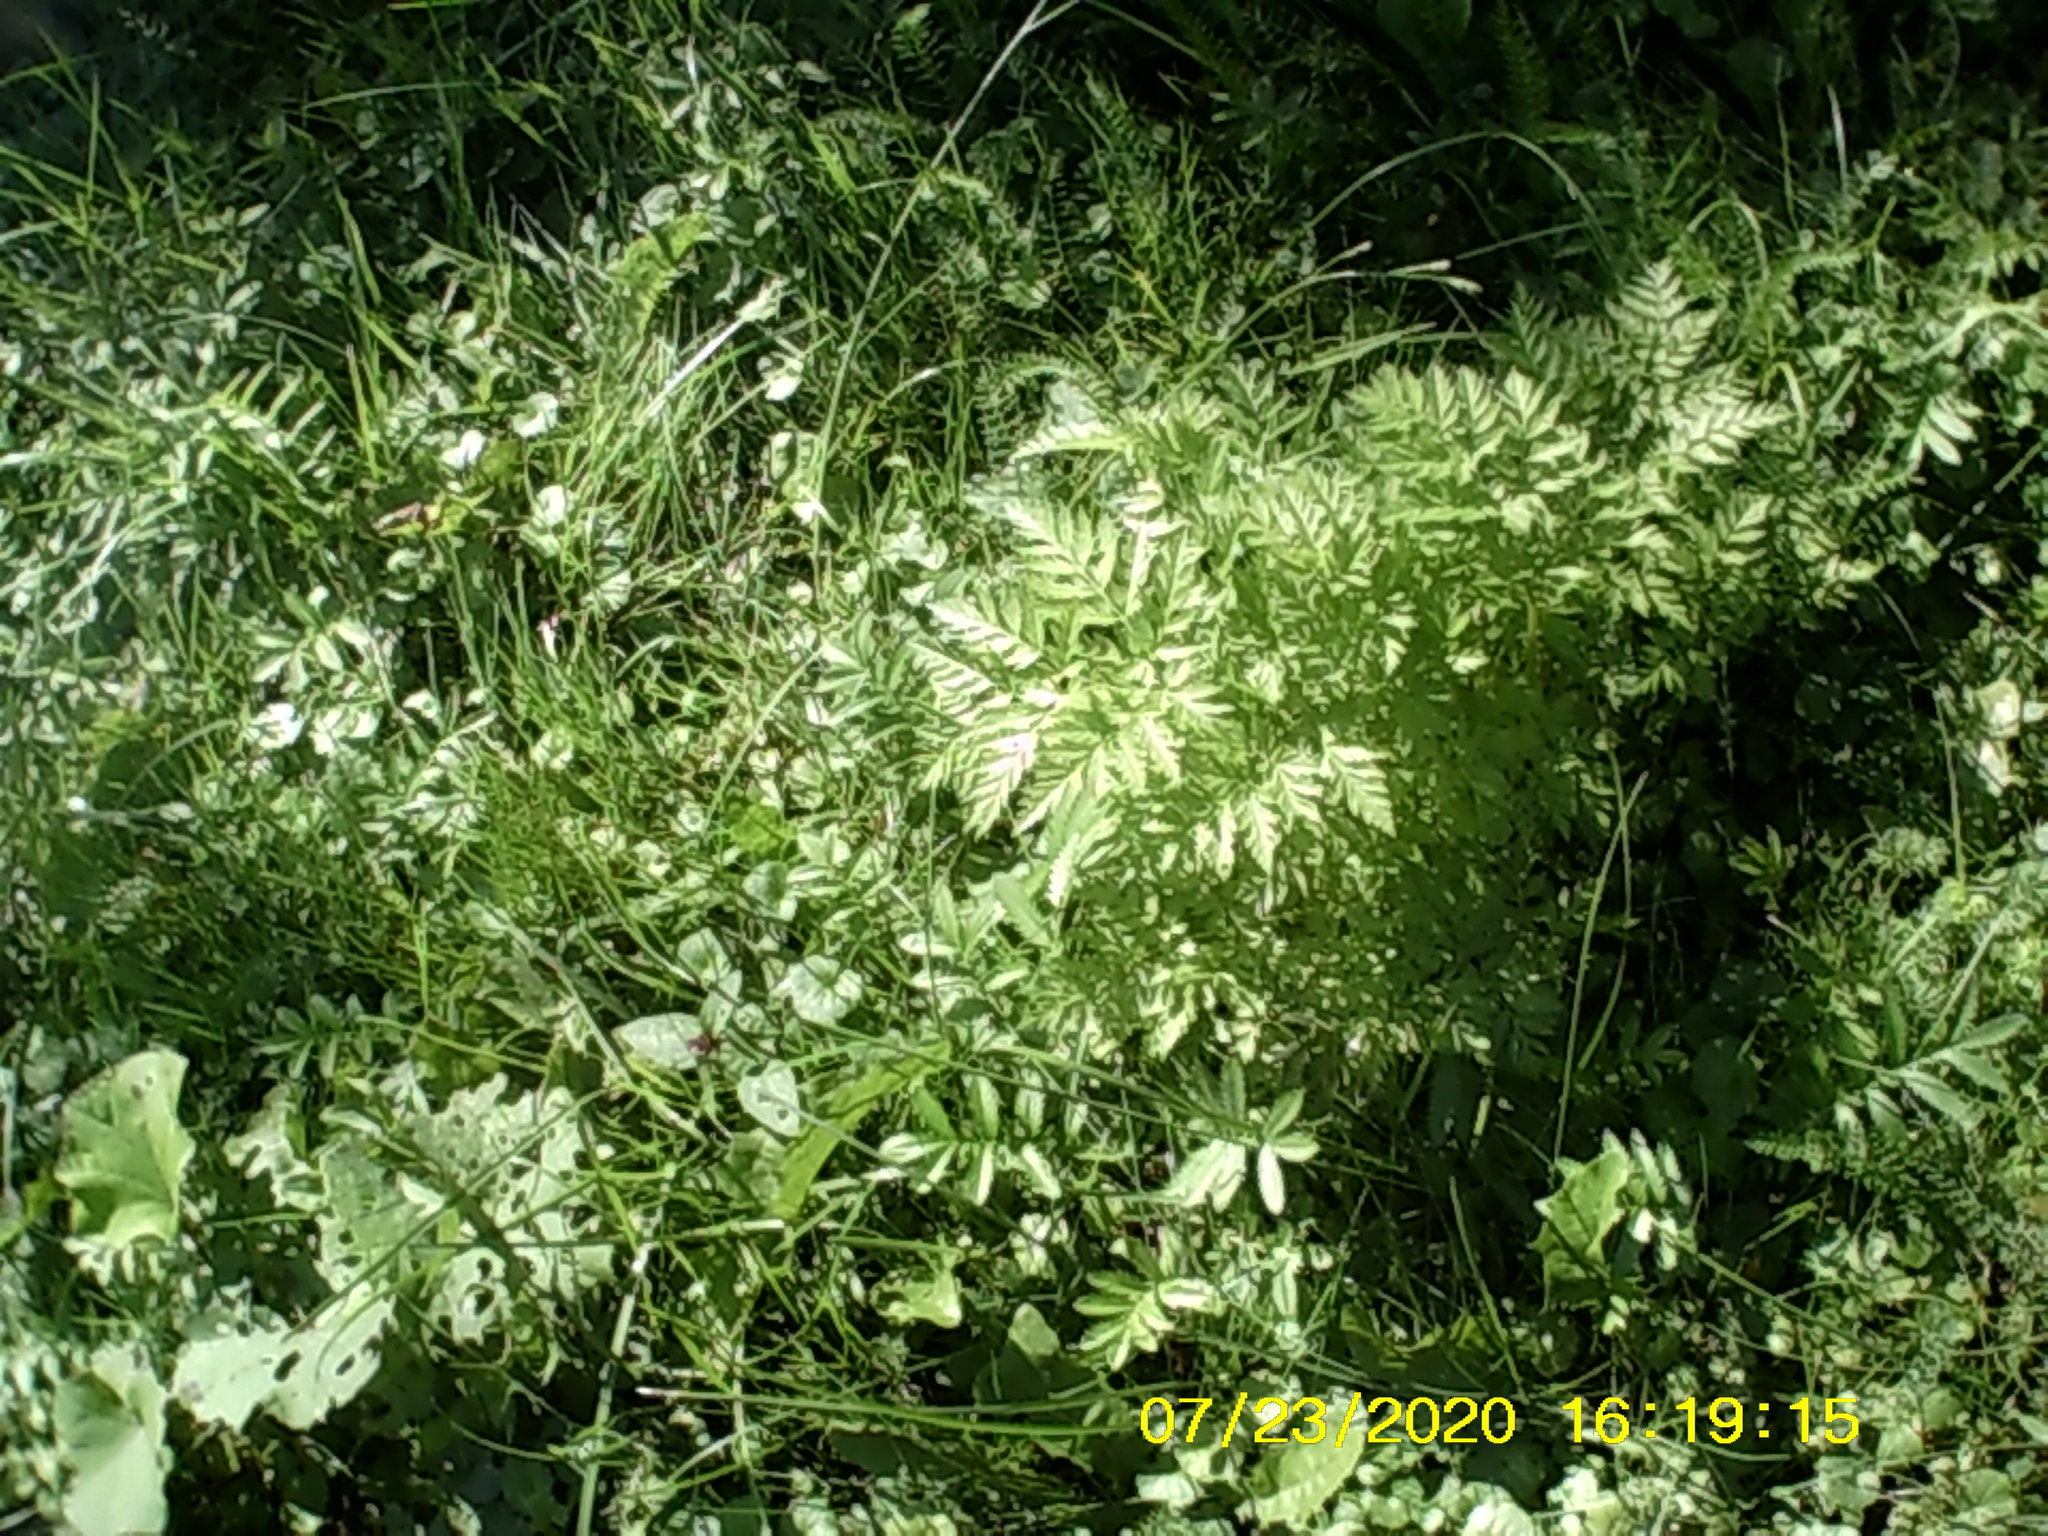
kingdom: Plantae
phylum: Tracheophyta
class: Magnoliopsida
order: Apiales
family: Apiaceae
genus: Anthriscus
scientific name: Anthriscus sylvestris
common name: Cow parsley
